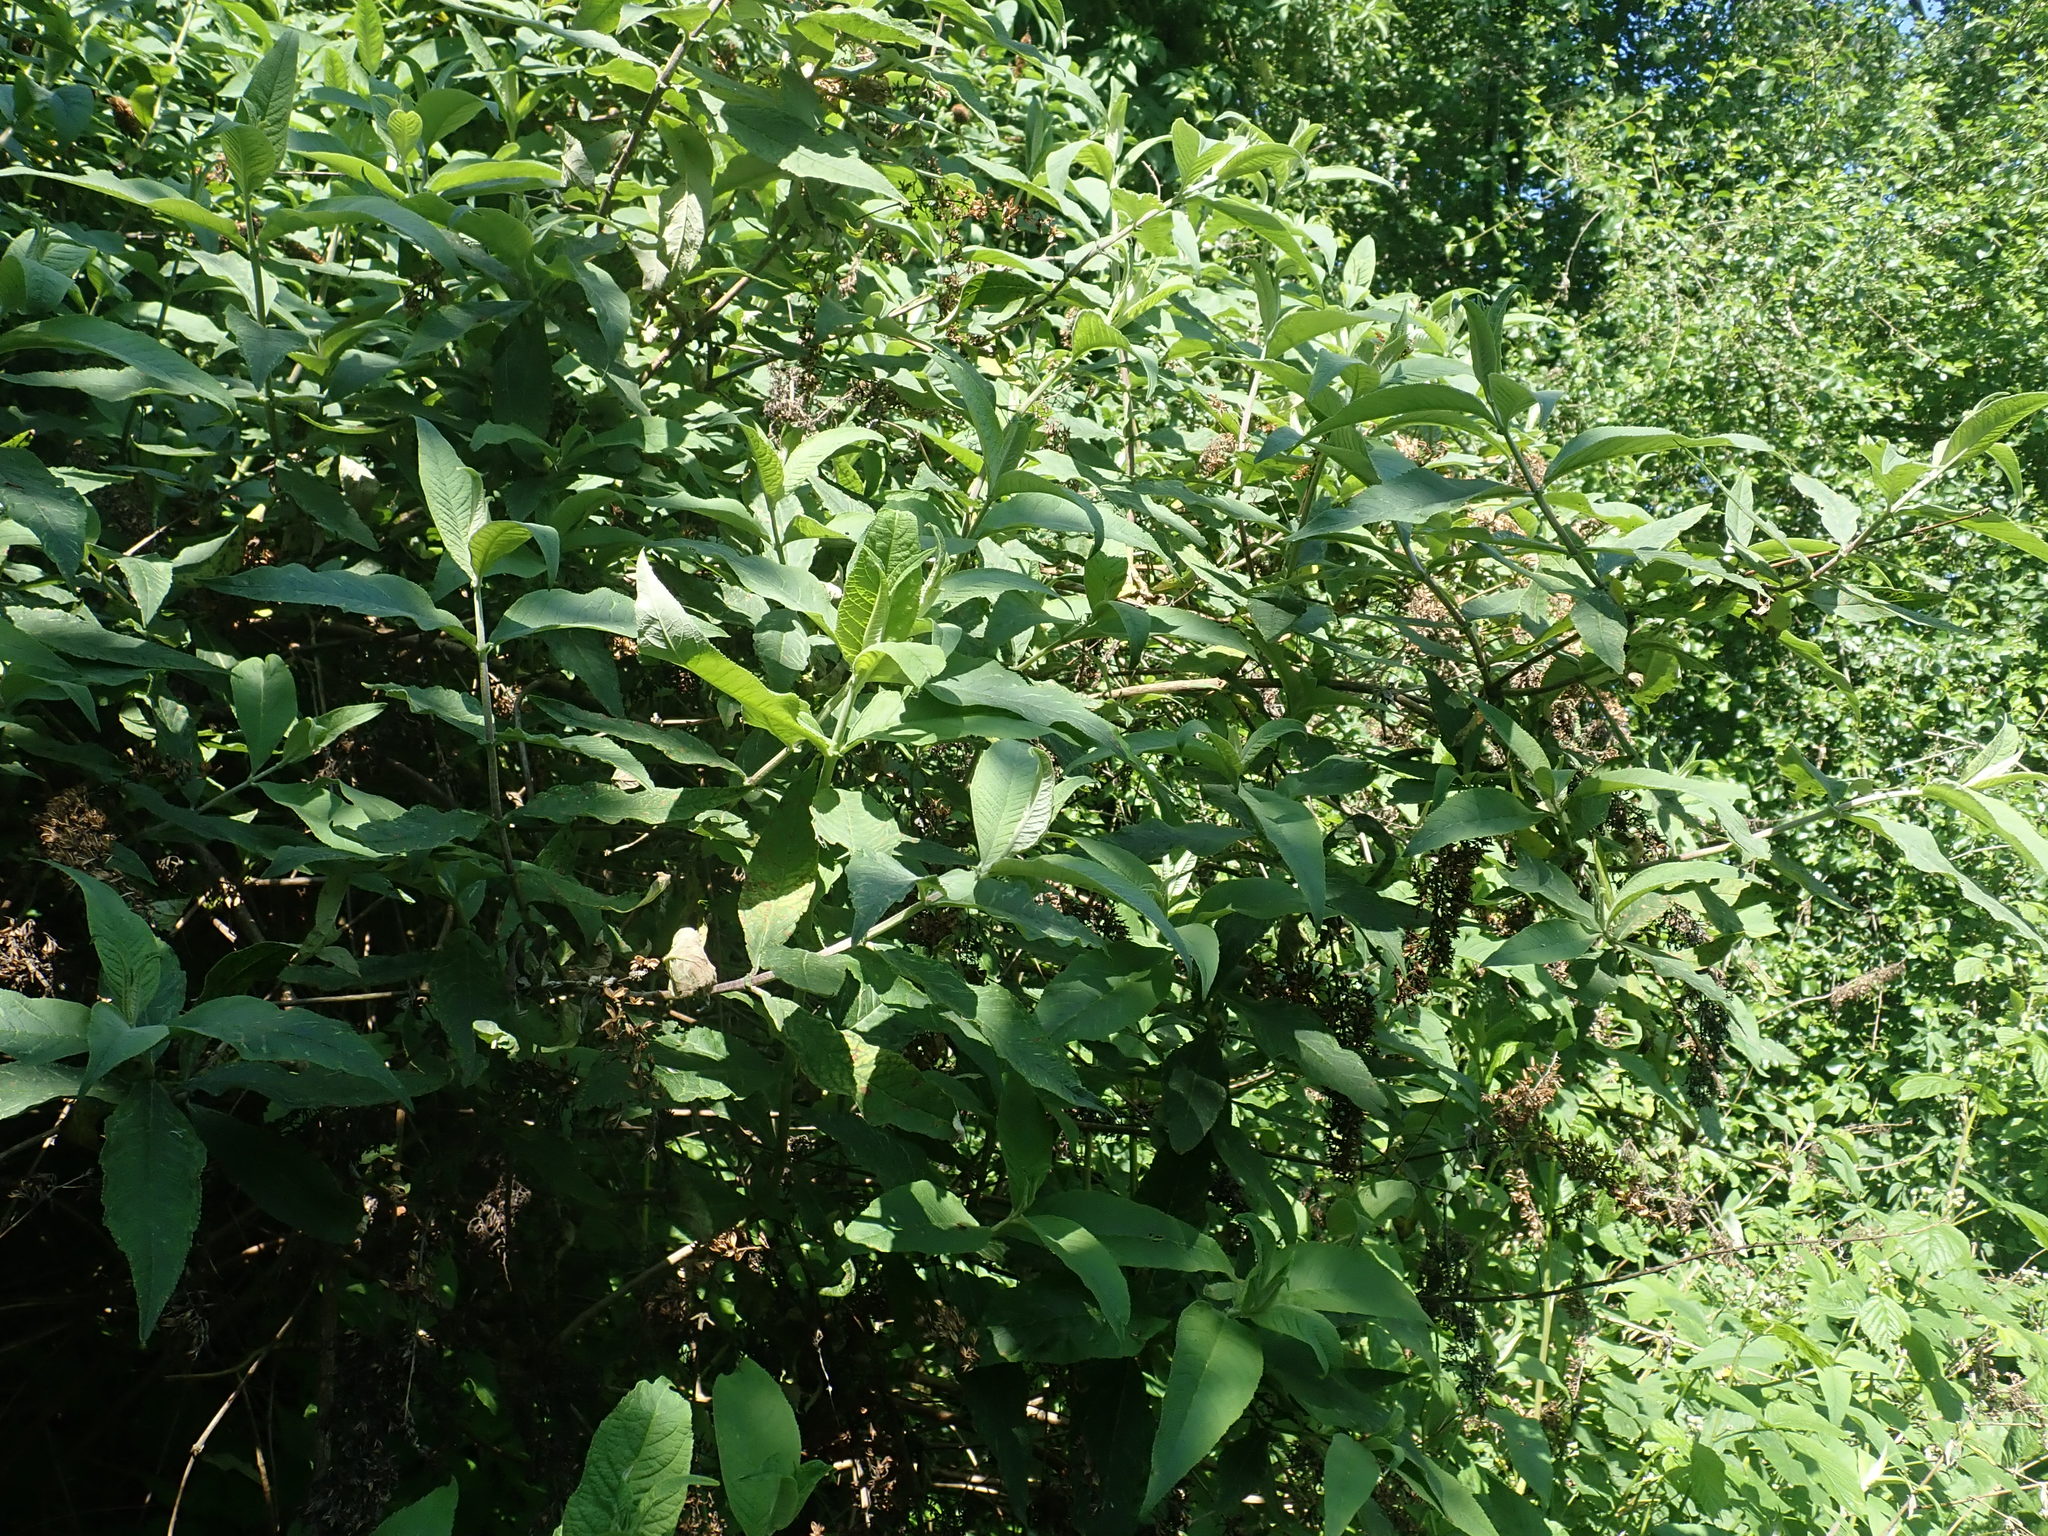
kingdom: Plantae
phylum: Tracheophyta
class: Magnoliopsida
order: Lamiales
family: Scrophulariaceae
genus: Buddleja
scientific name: Buddleja davidii
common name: Butterfly-bush
